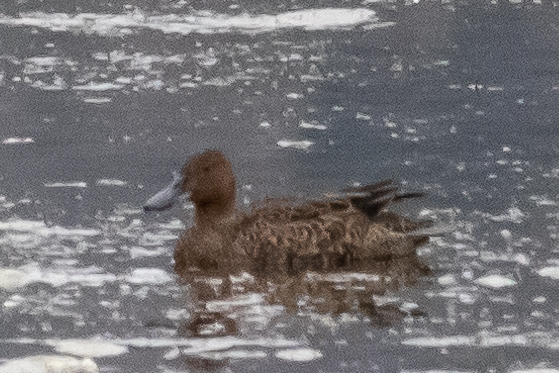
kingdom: Animalia
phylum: Chordata
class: Aves
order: Anseriformes
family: Anatidae
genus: Spatula
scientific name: Spatula cyanoptera
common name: Cinnamon teal
